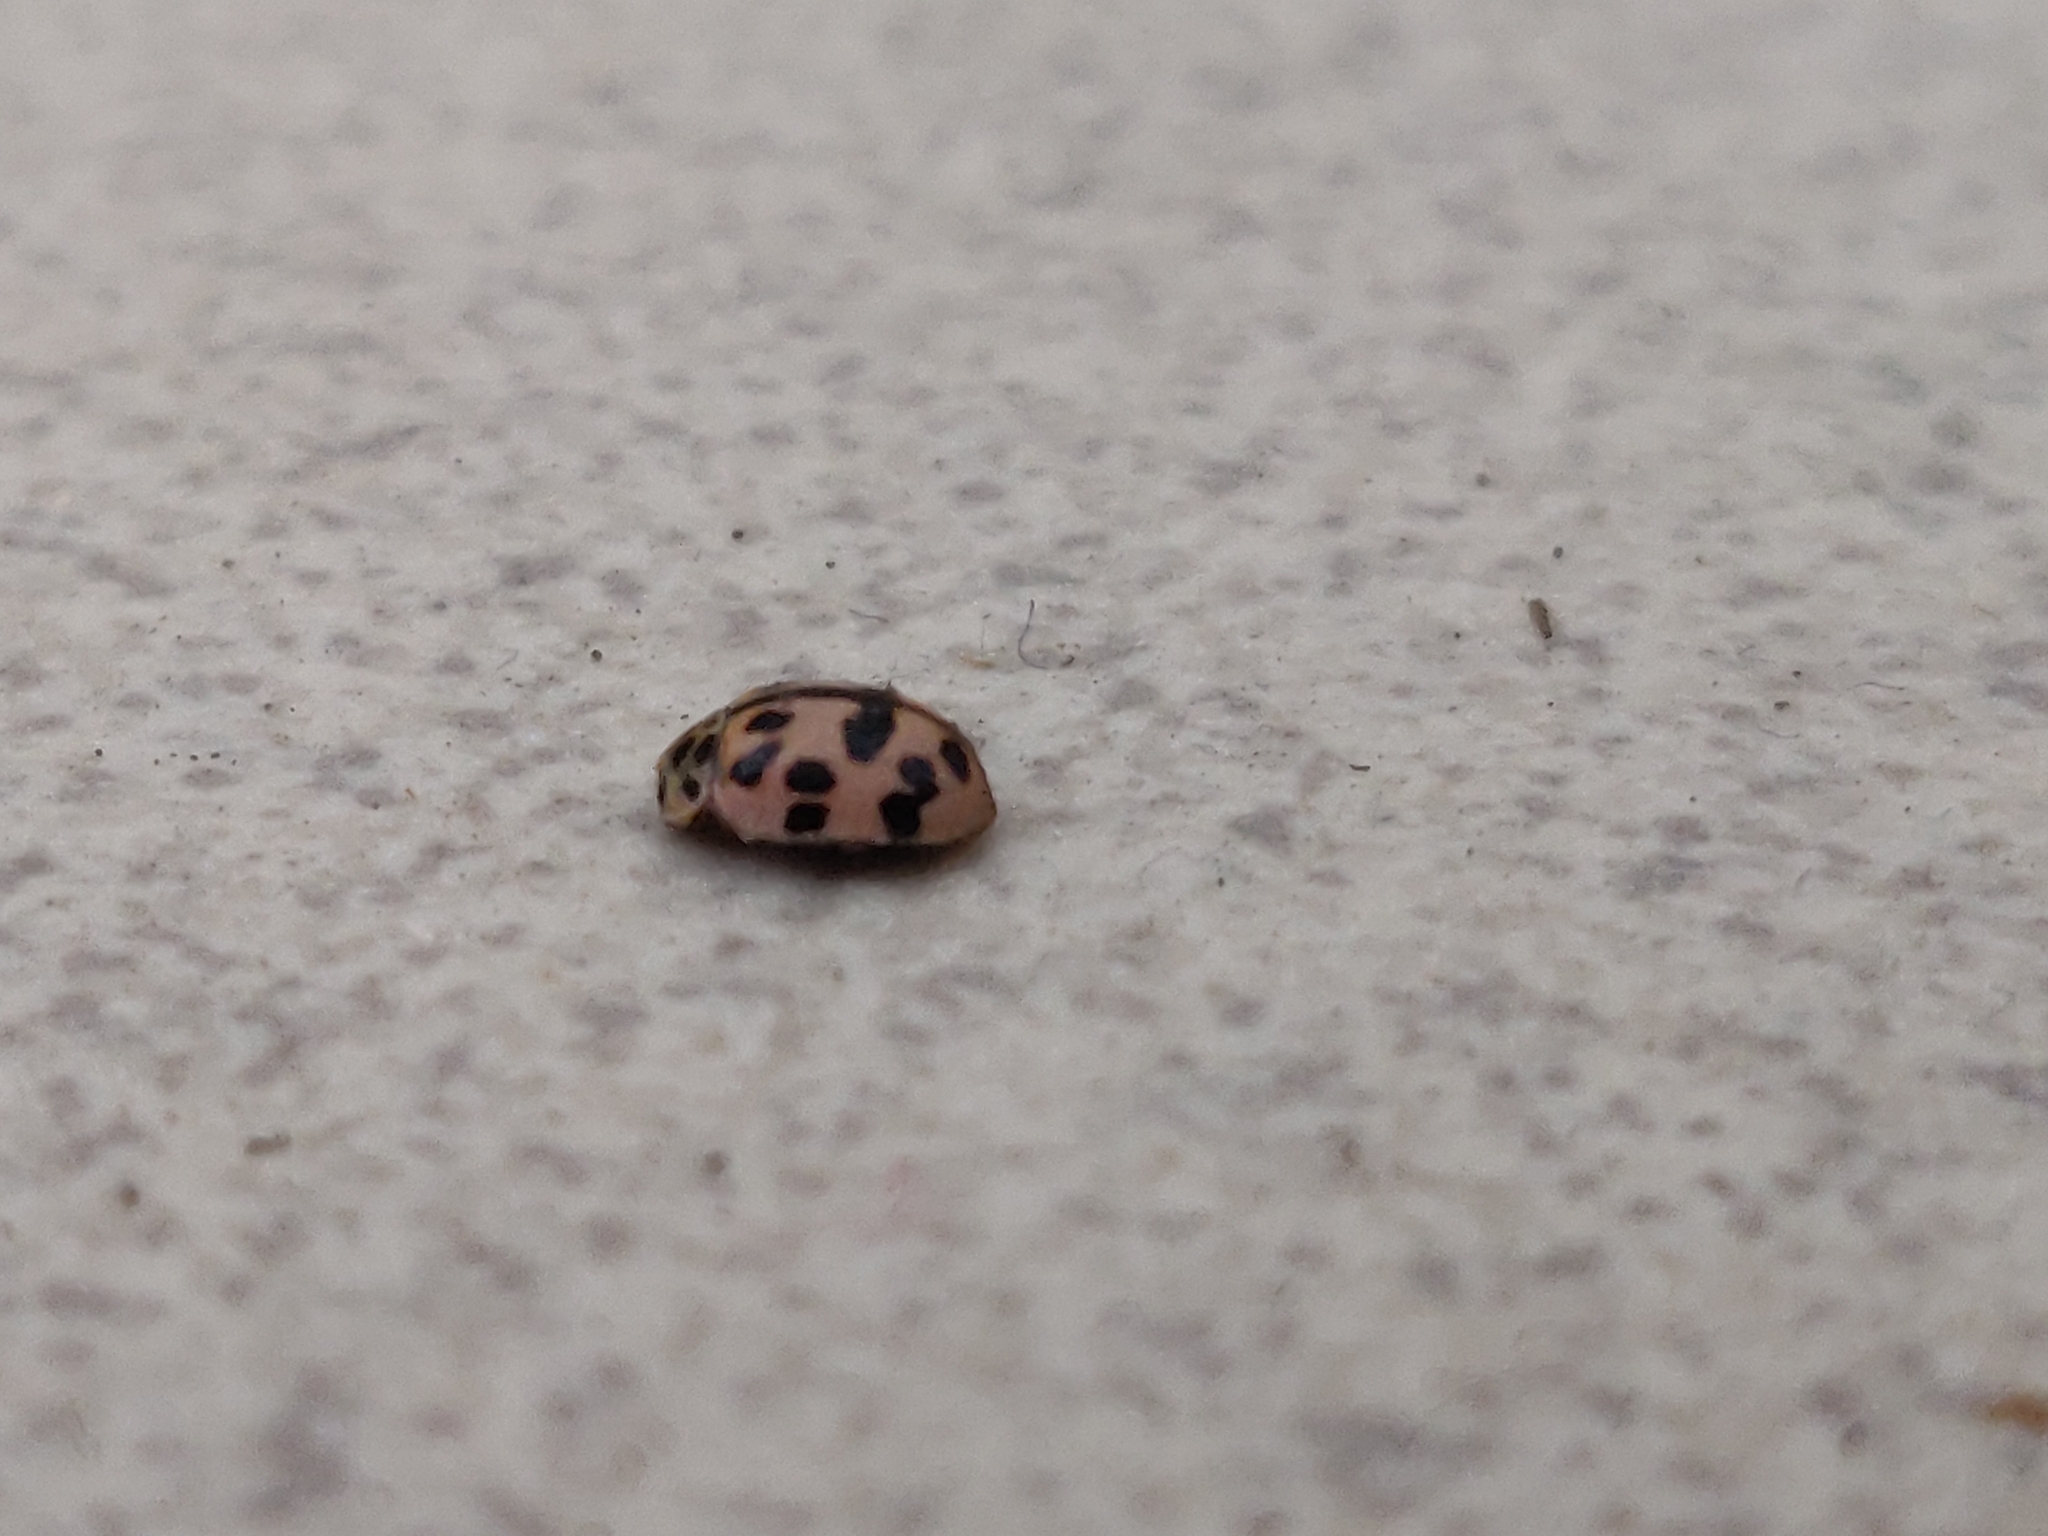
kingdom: Animalia
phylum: Arthropoda
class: Insecta
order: Coleoptera
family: Coccinellidae
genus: Oenopia
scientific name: Oenopia conglobata
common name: Ladybird beetle
